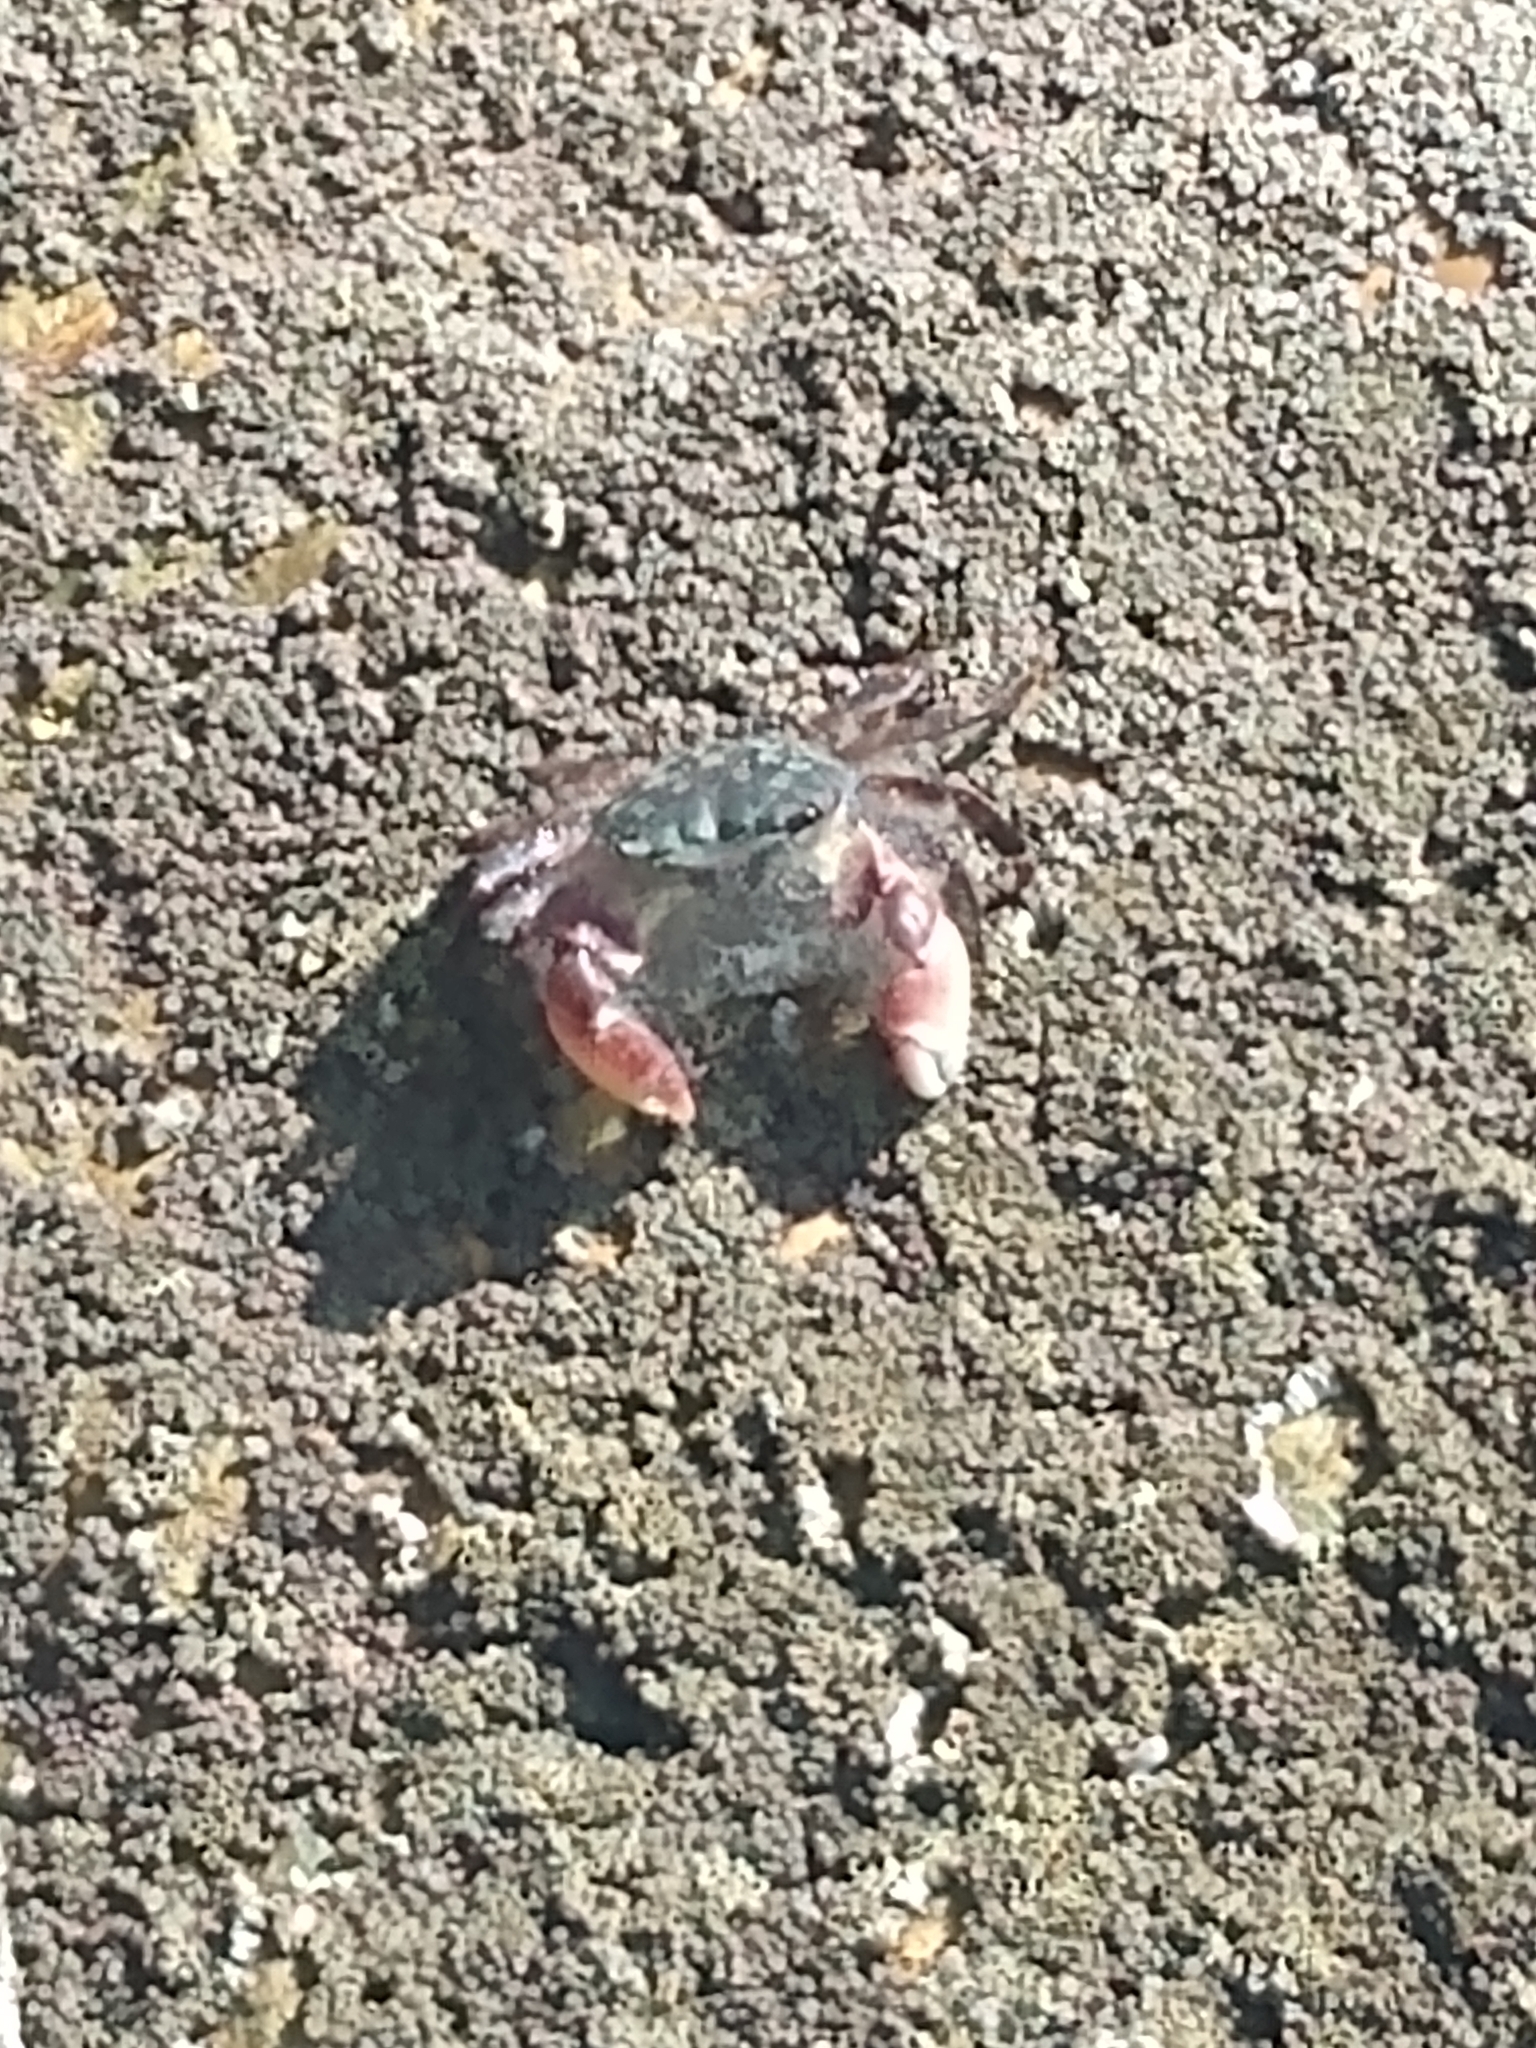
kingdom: Animalia
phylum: Arthropoda
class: Malacostraca
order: Decapoda
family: Grapsidae
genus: Pachygrapsus
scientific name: Pachygrapsus crassipes
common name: Striped shore crab
